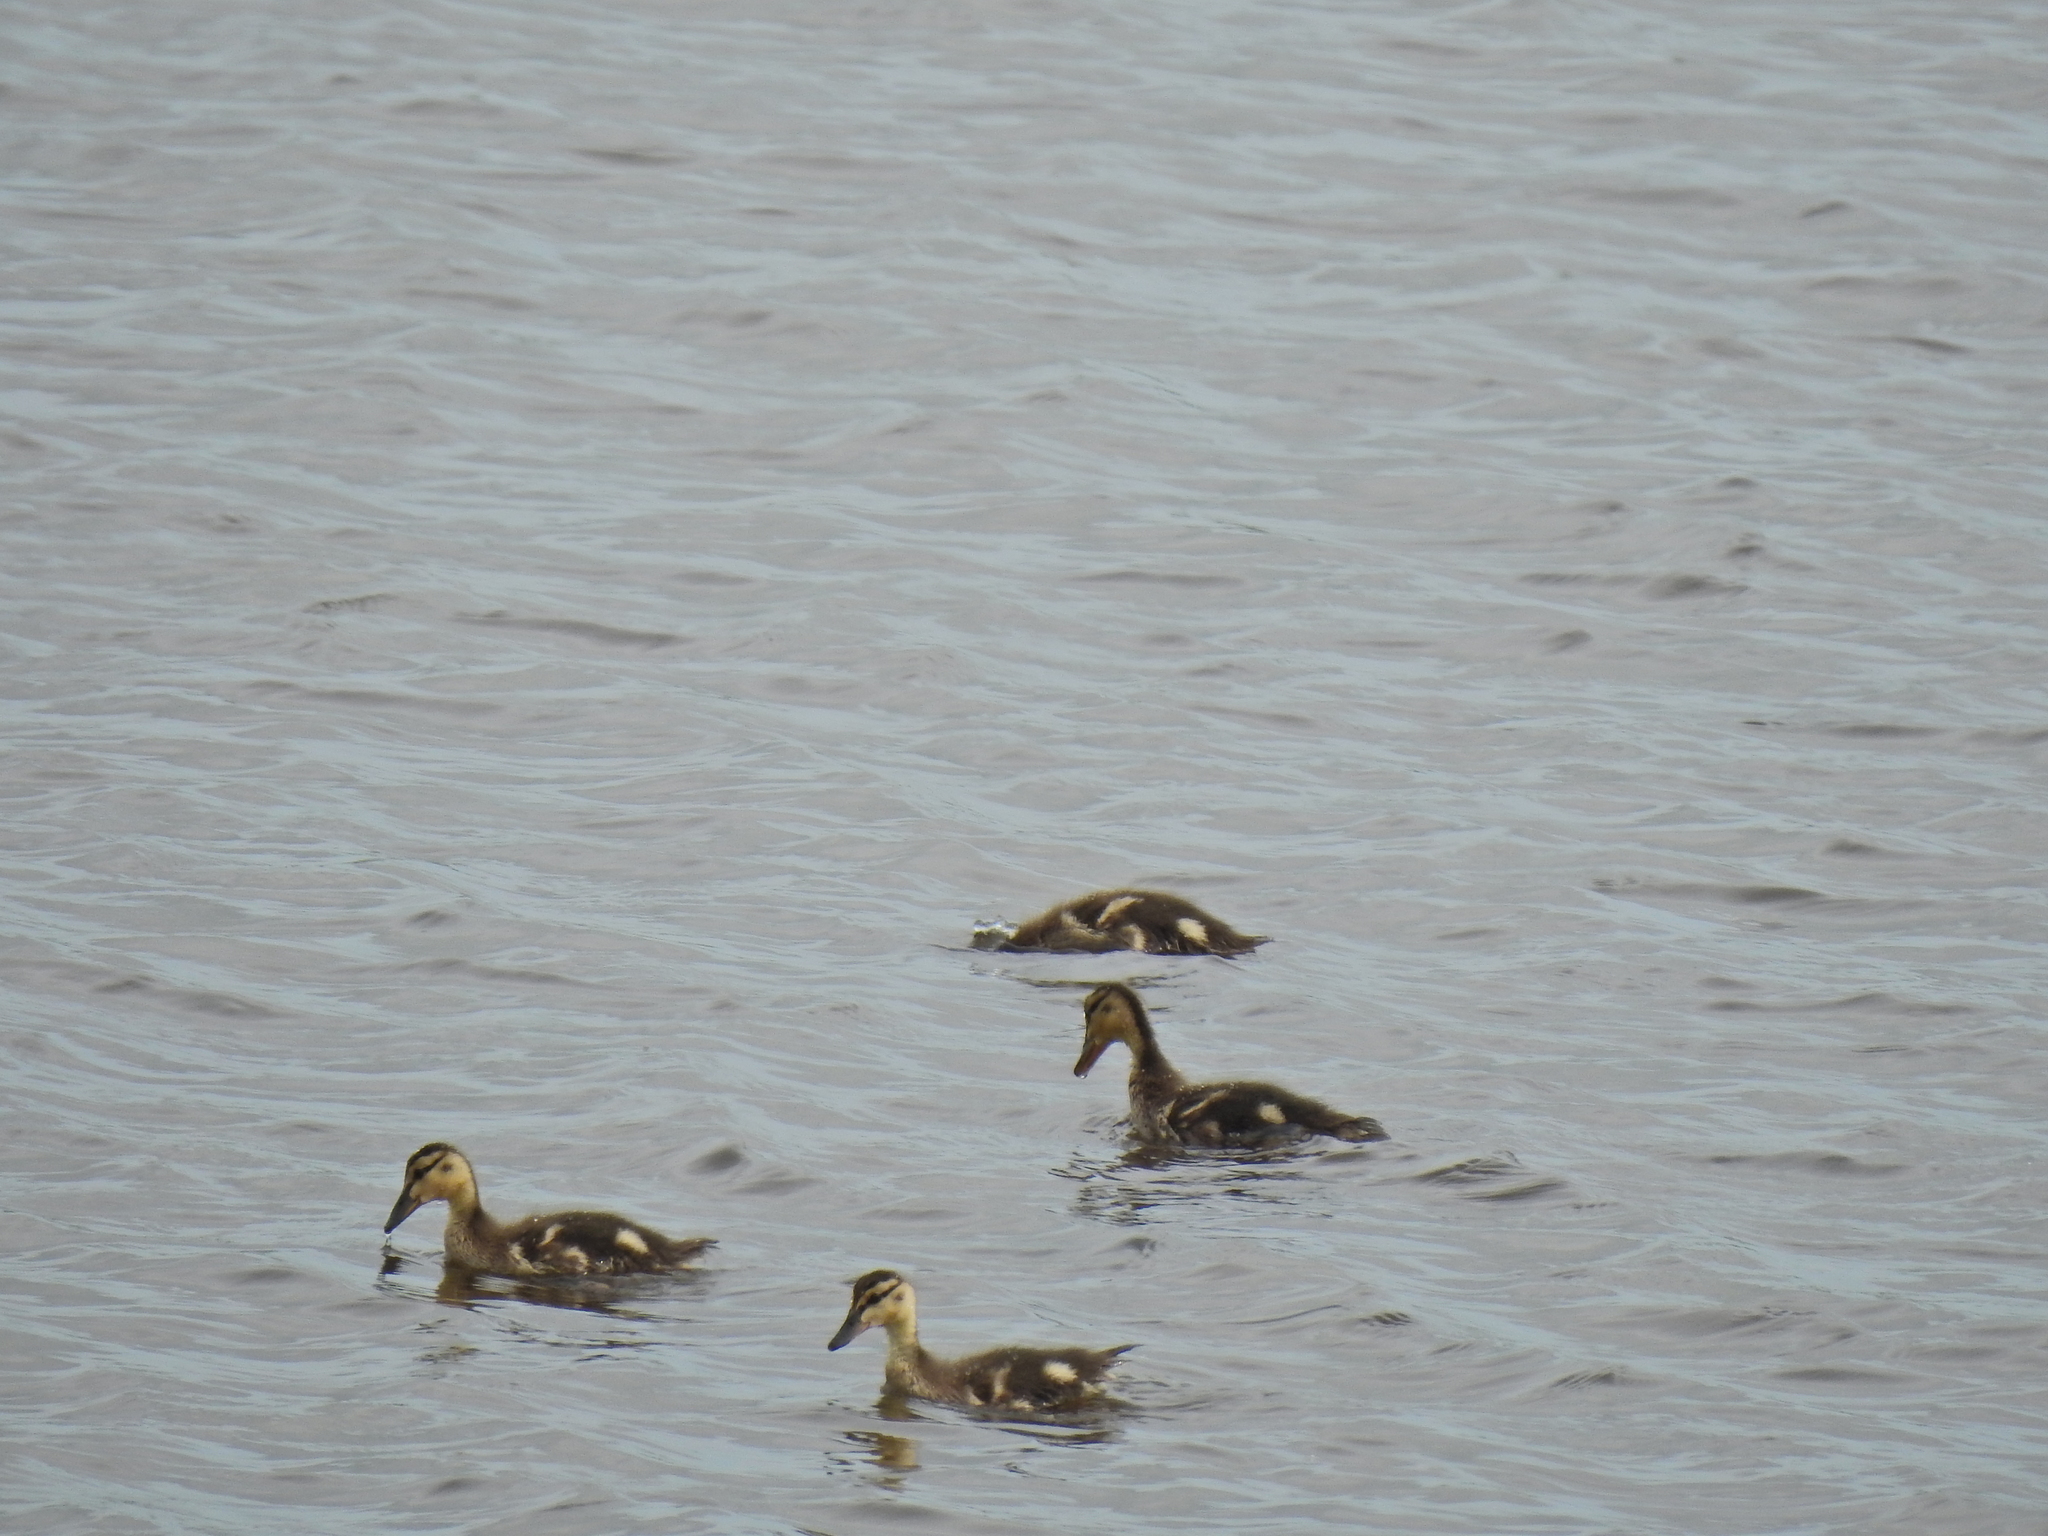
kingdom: Animalia
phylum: Chordata
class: Aves
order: Anseriformes
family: Anatidae
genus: Anas
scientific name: Anas platyrhynchos
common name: Mallard
